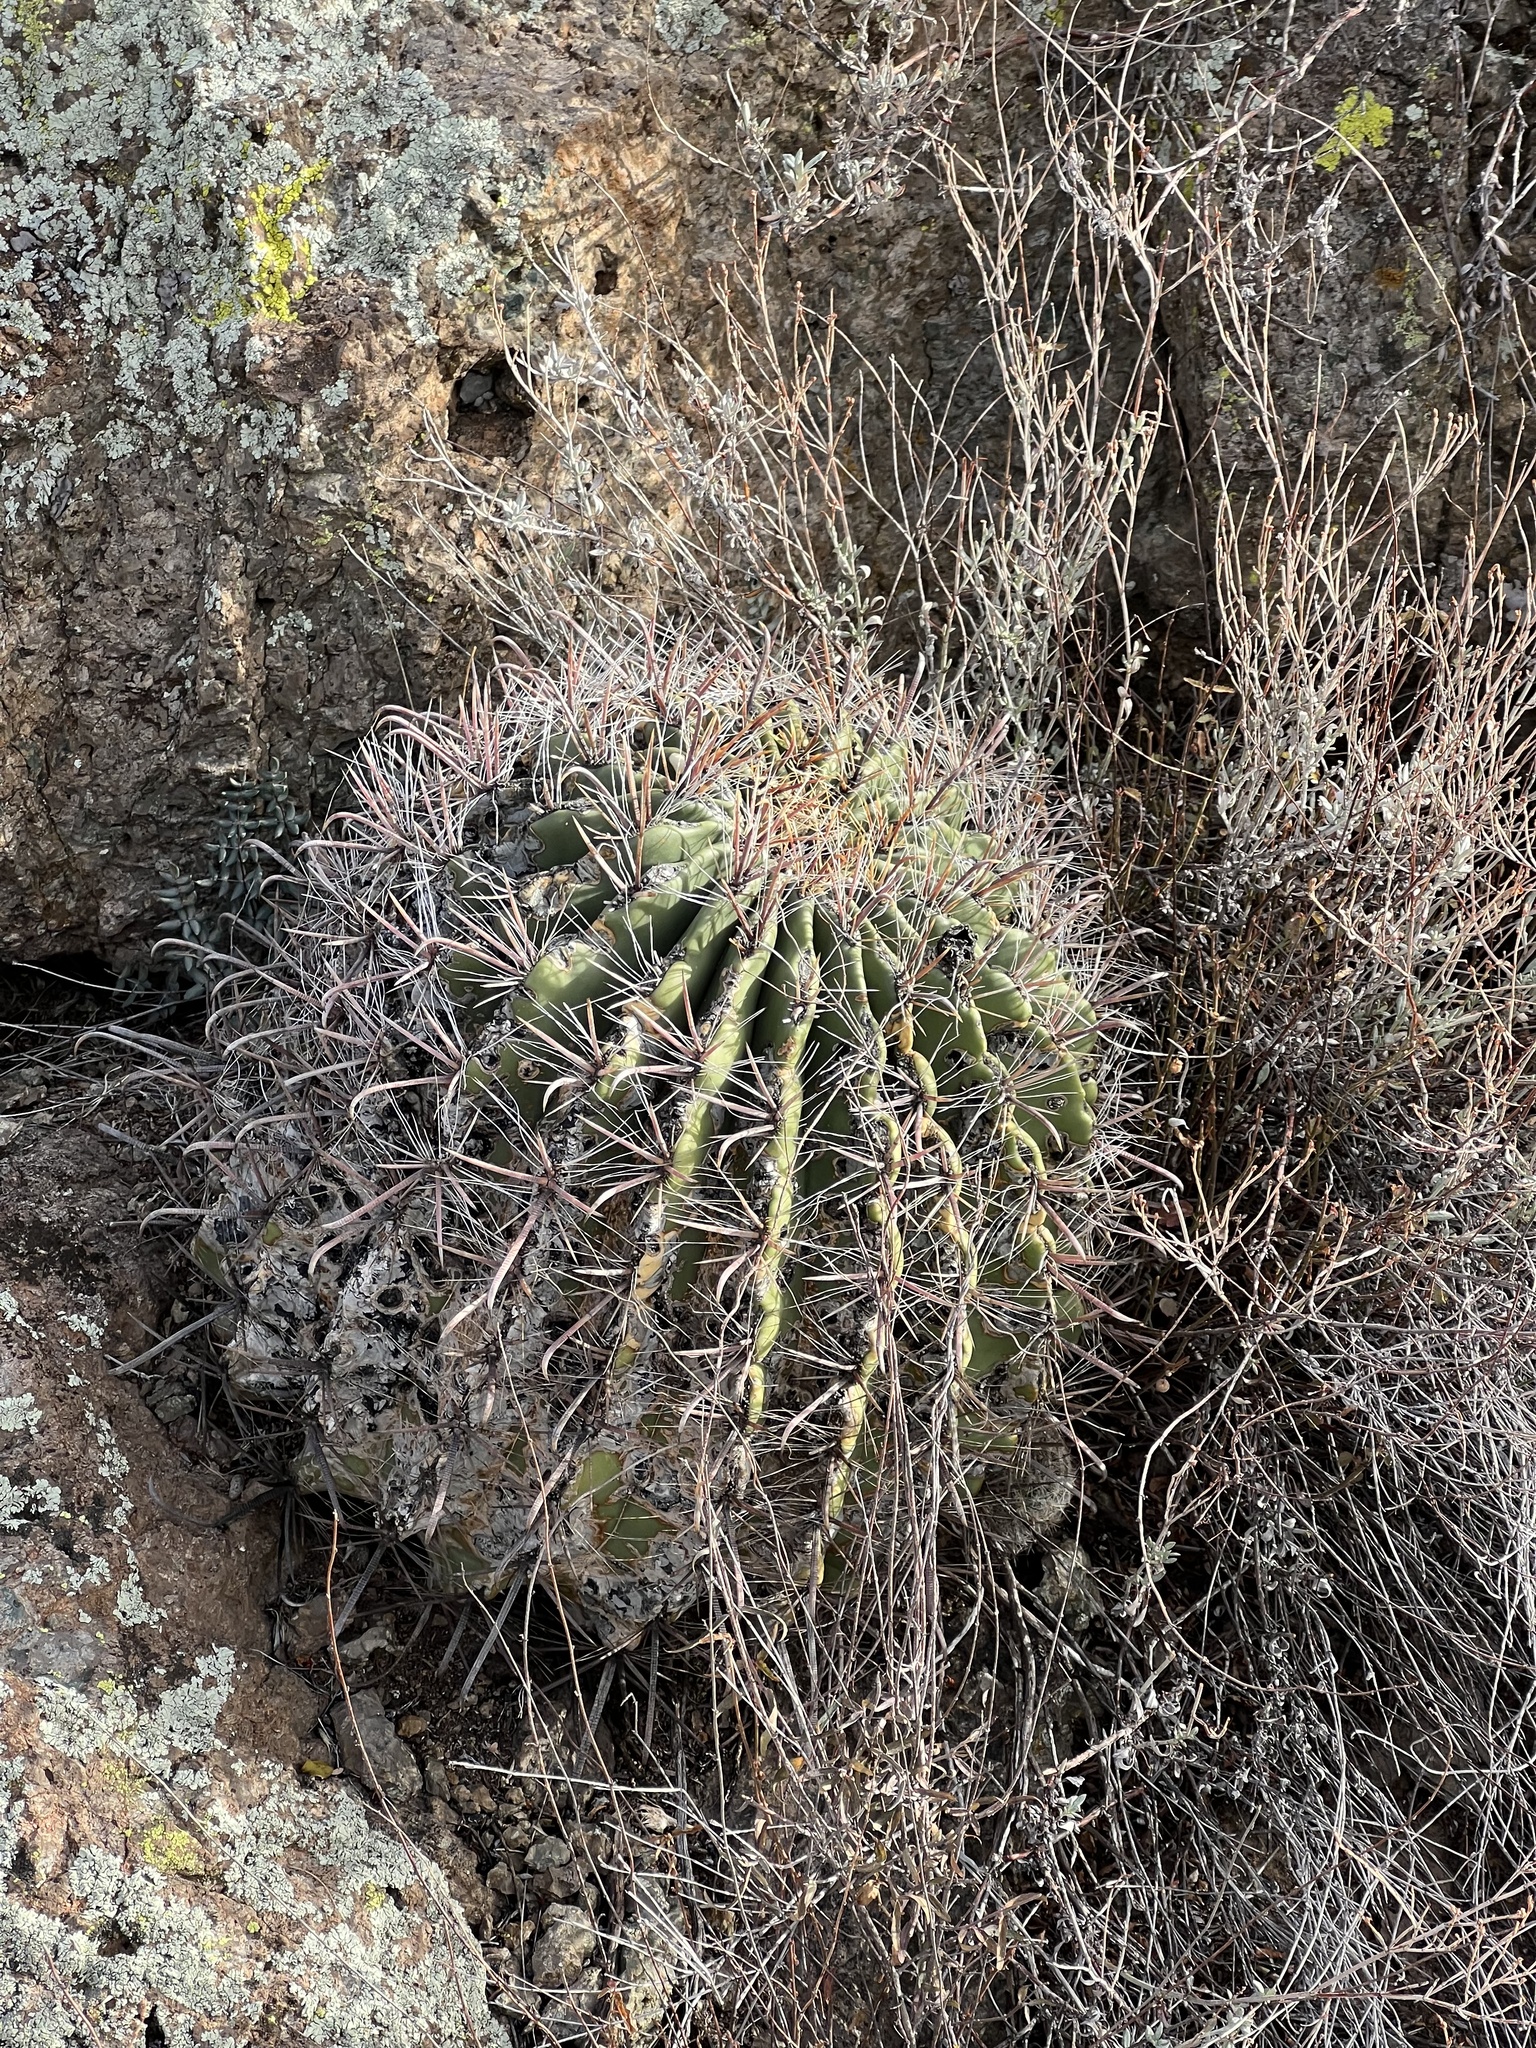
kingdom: Plantae
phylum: Tracheophyta
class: Magnoliopsida
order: Caryophyllales
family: Cactaceae
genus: Ferocactus
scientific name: Ferocactus wislizeni
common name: Candy barrel cactus
